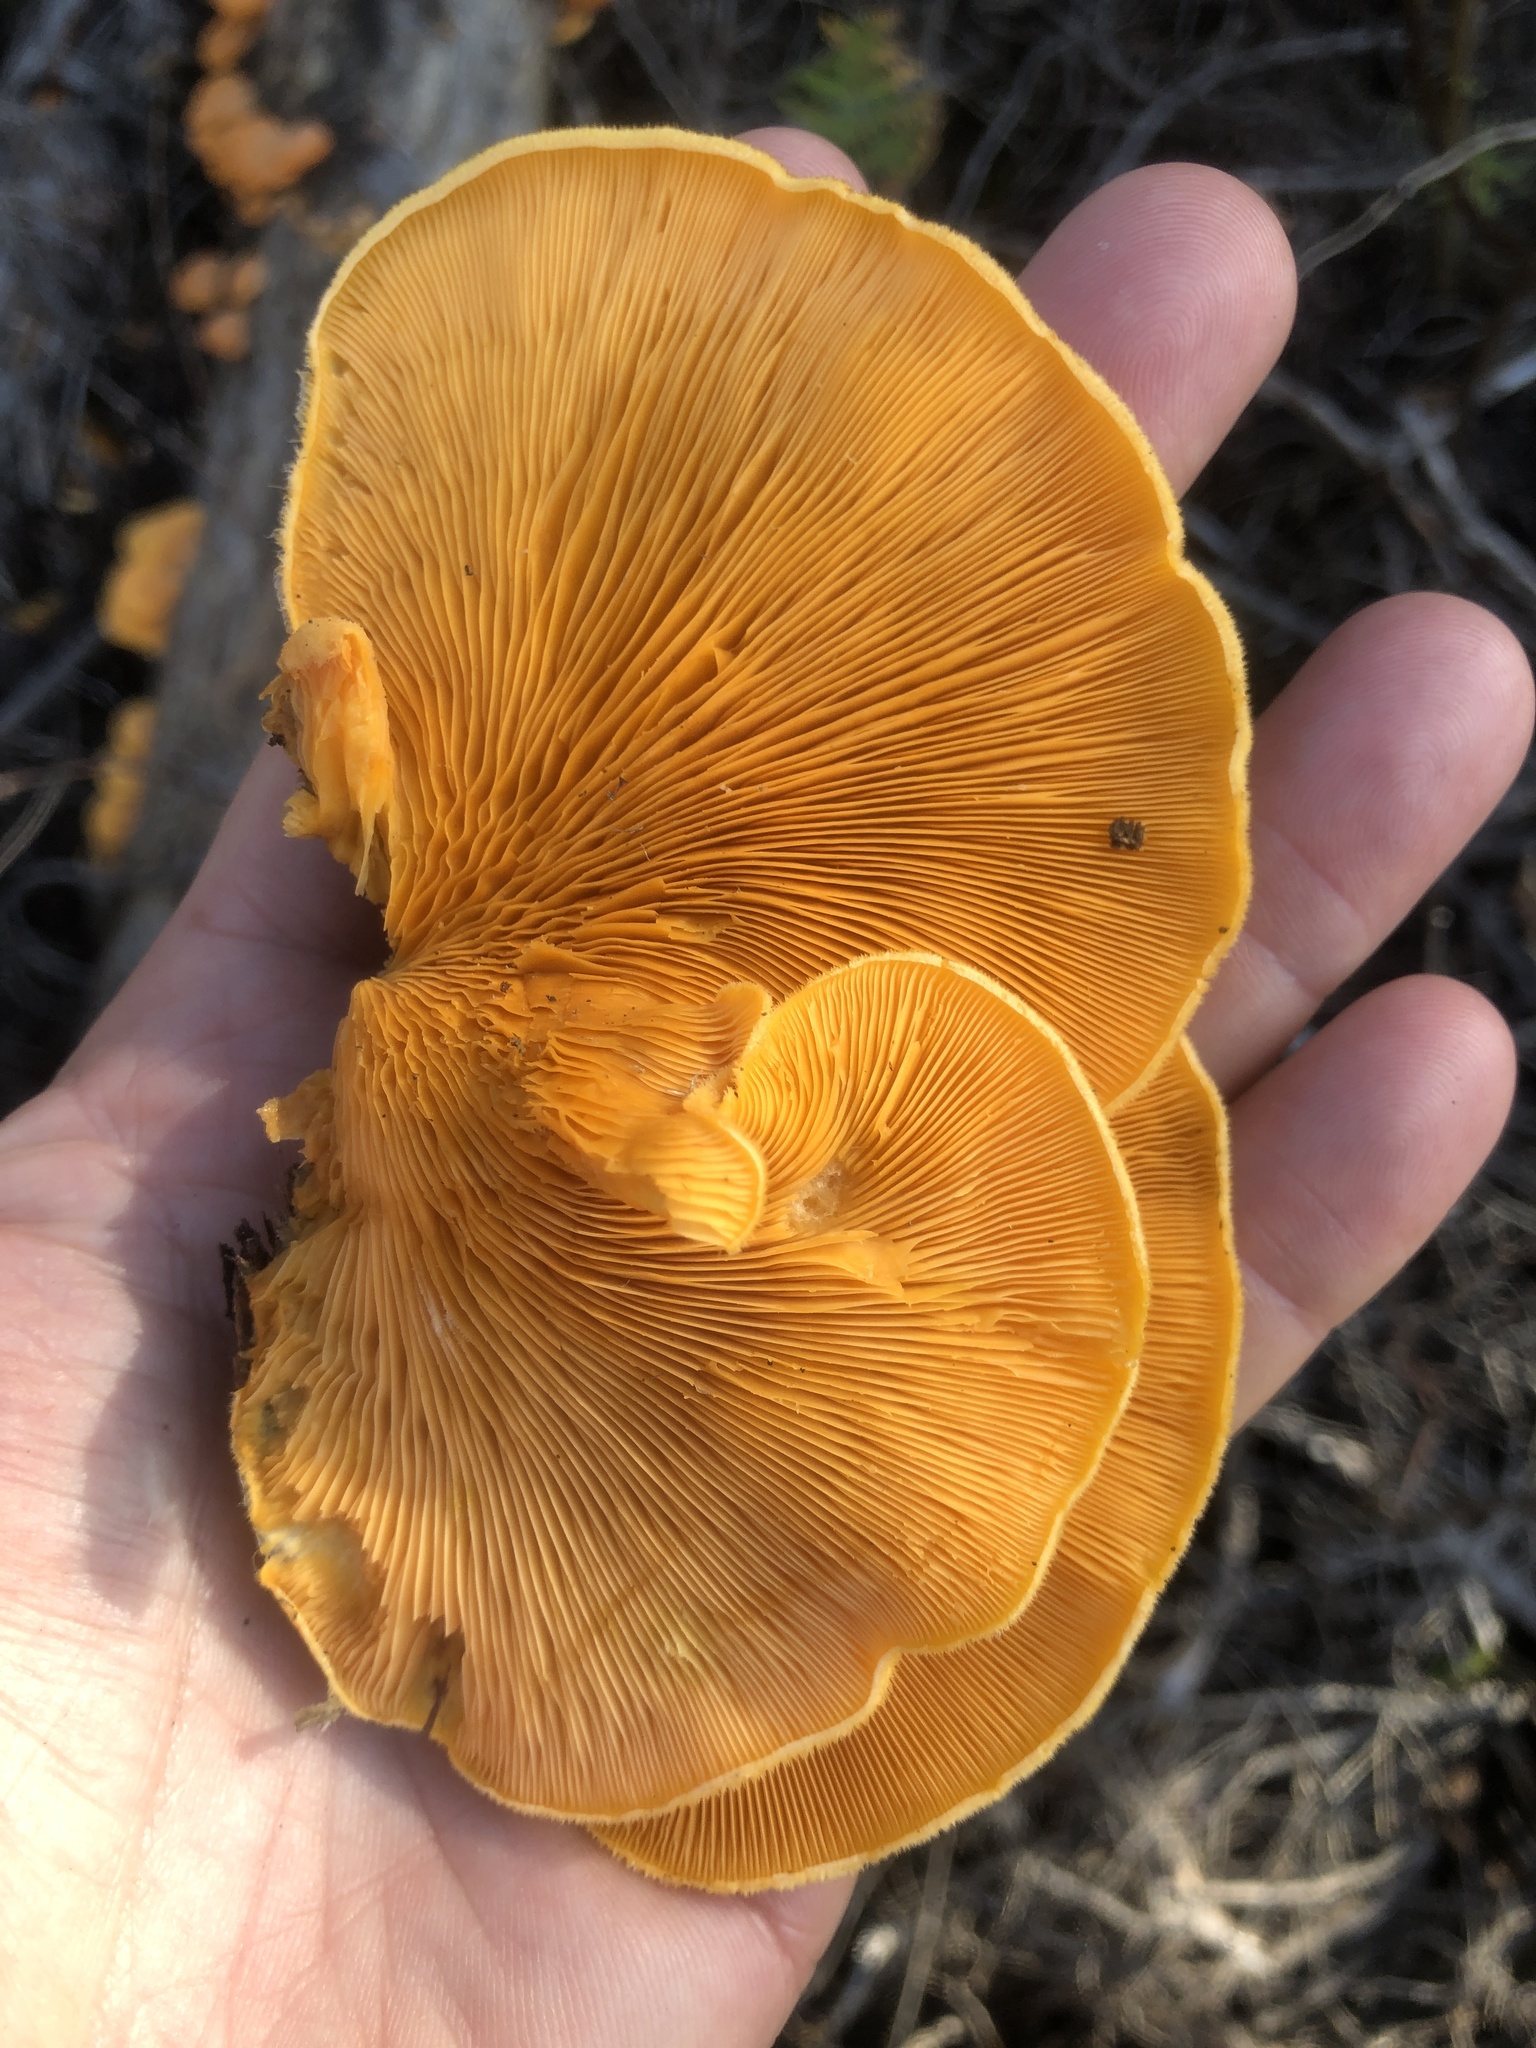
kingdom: Fungi
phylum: Basidiomycota
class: Agaricomycetes
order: Agaricales
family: Phyllotopsidaceae
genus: Phyllotopsis
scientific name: Phyllotopsis nidulans
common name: Orange mock oyster
